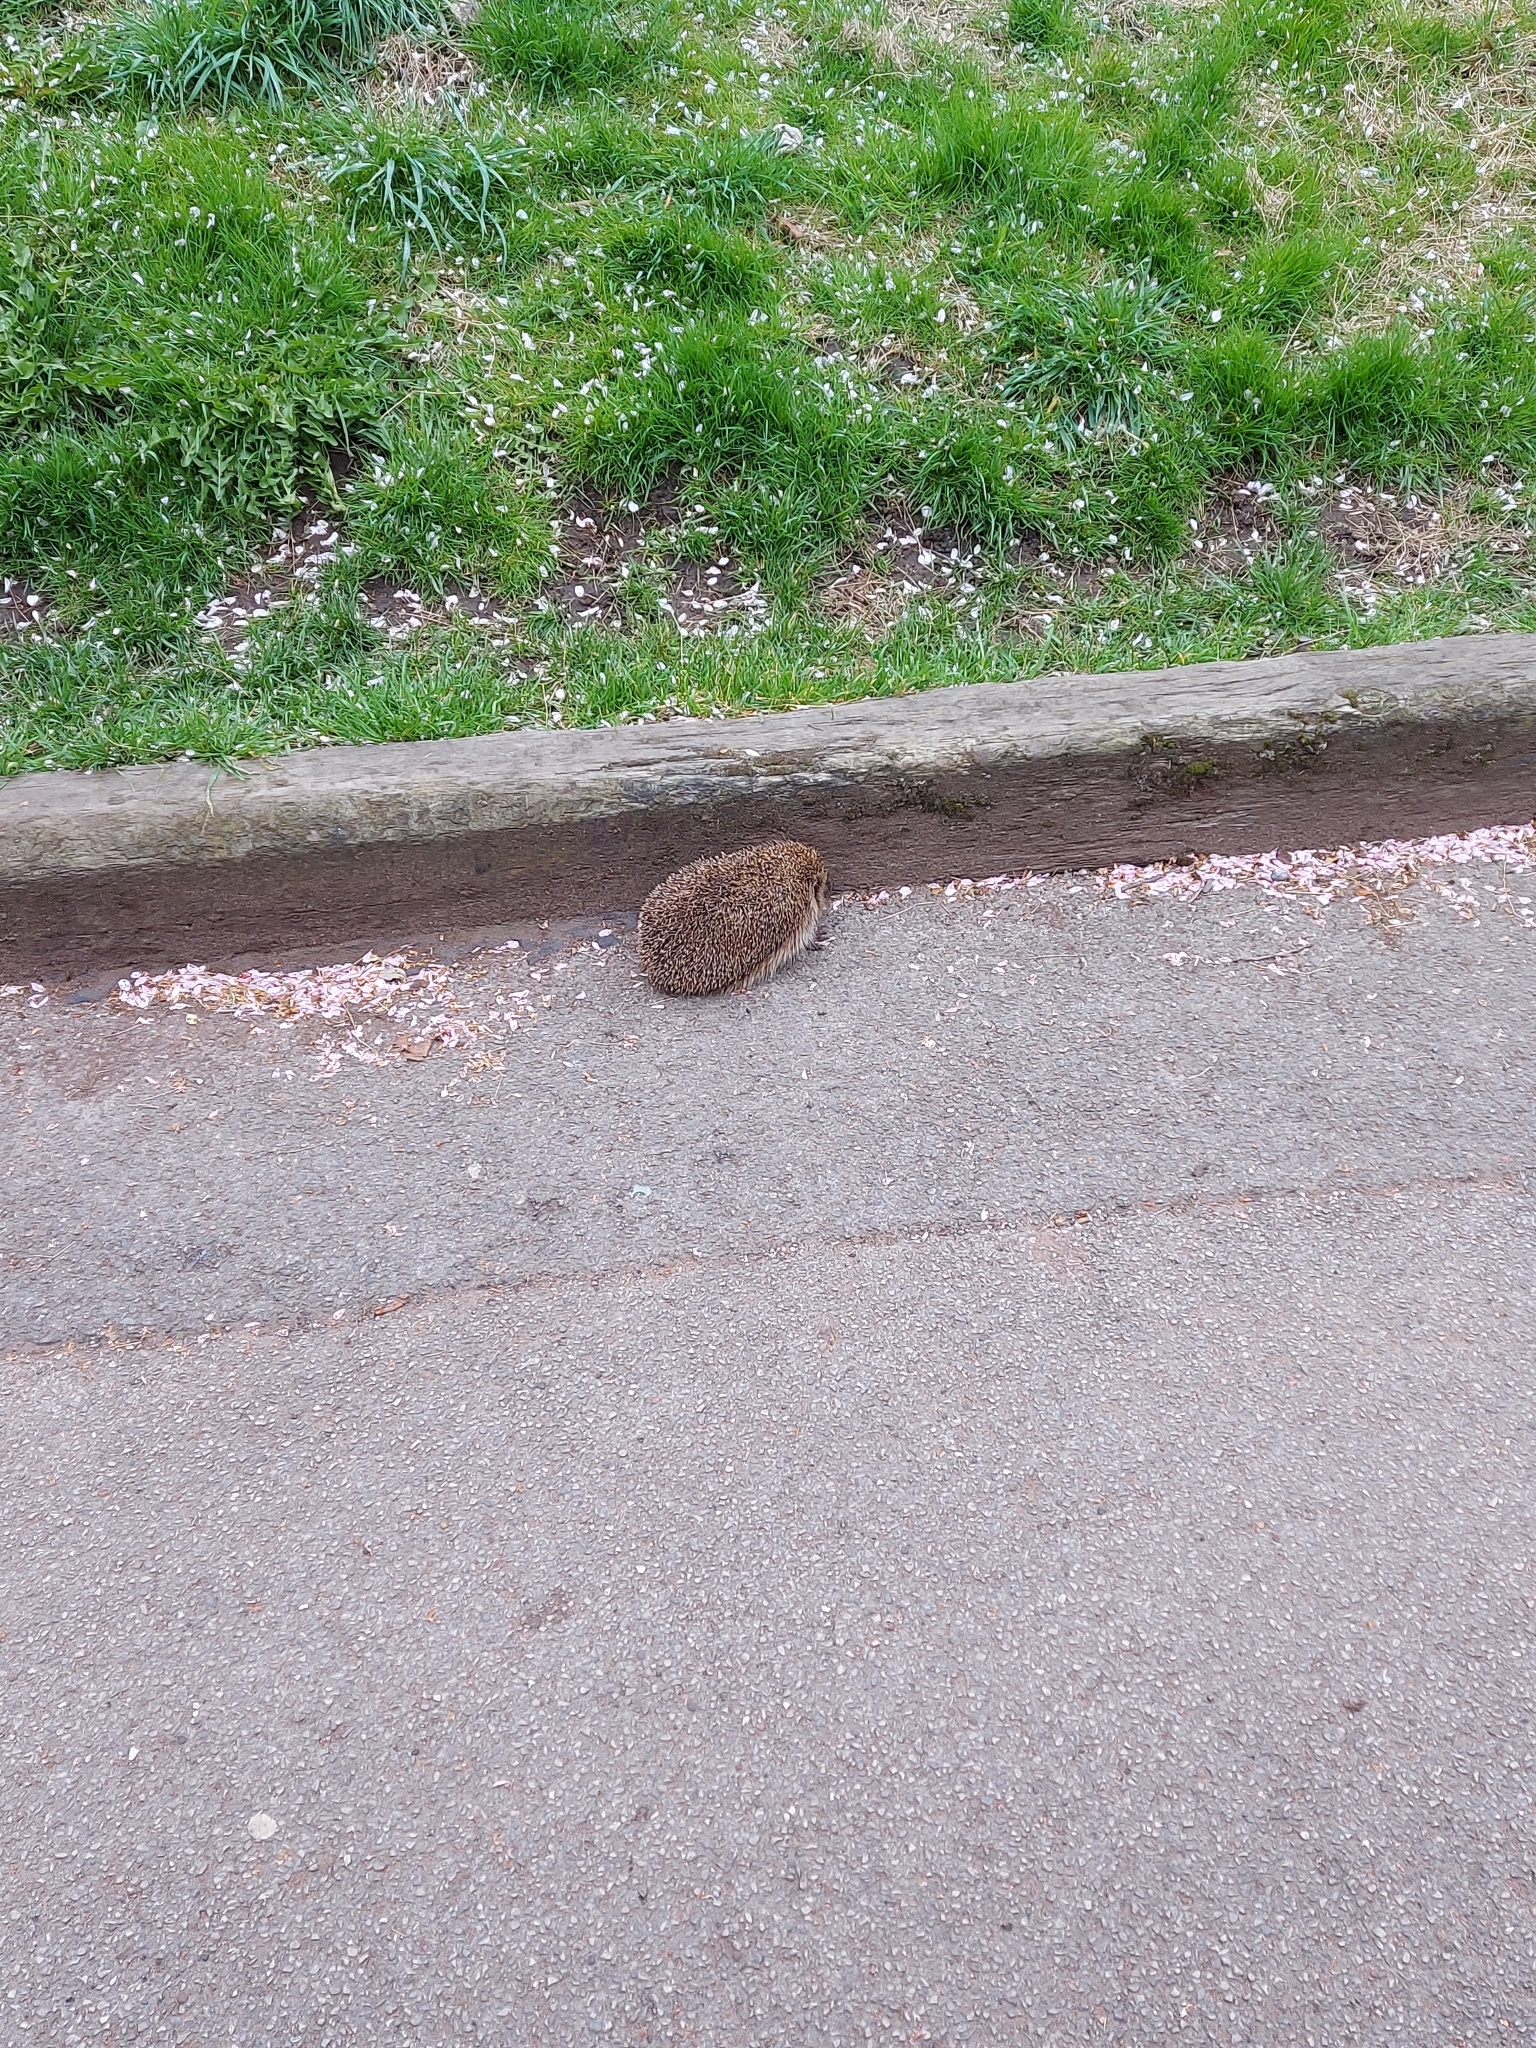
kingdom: Animalia
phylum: Chordata
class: Mammalia
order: Erinaceomorpha
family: Erinaceidae
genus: Erinaceus
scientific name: Erinaceus europaeus
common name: West european hedgehog
